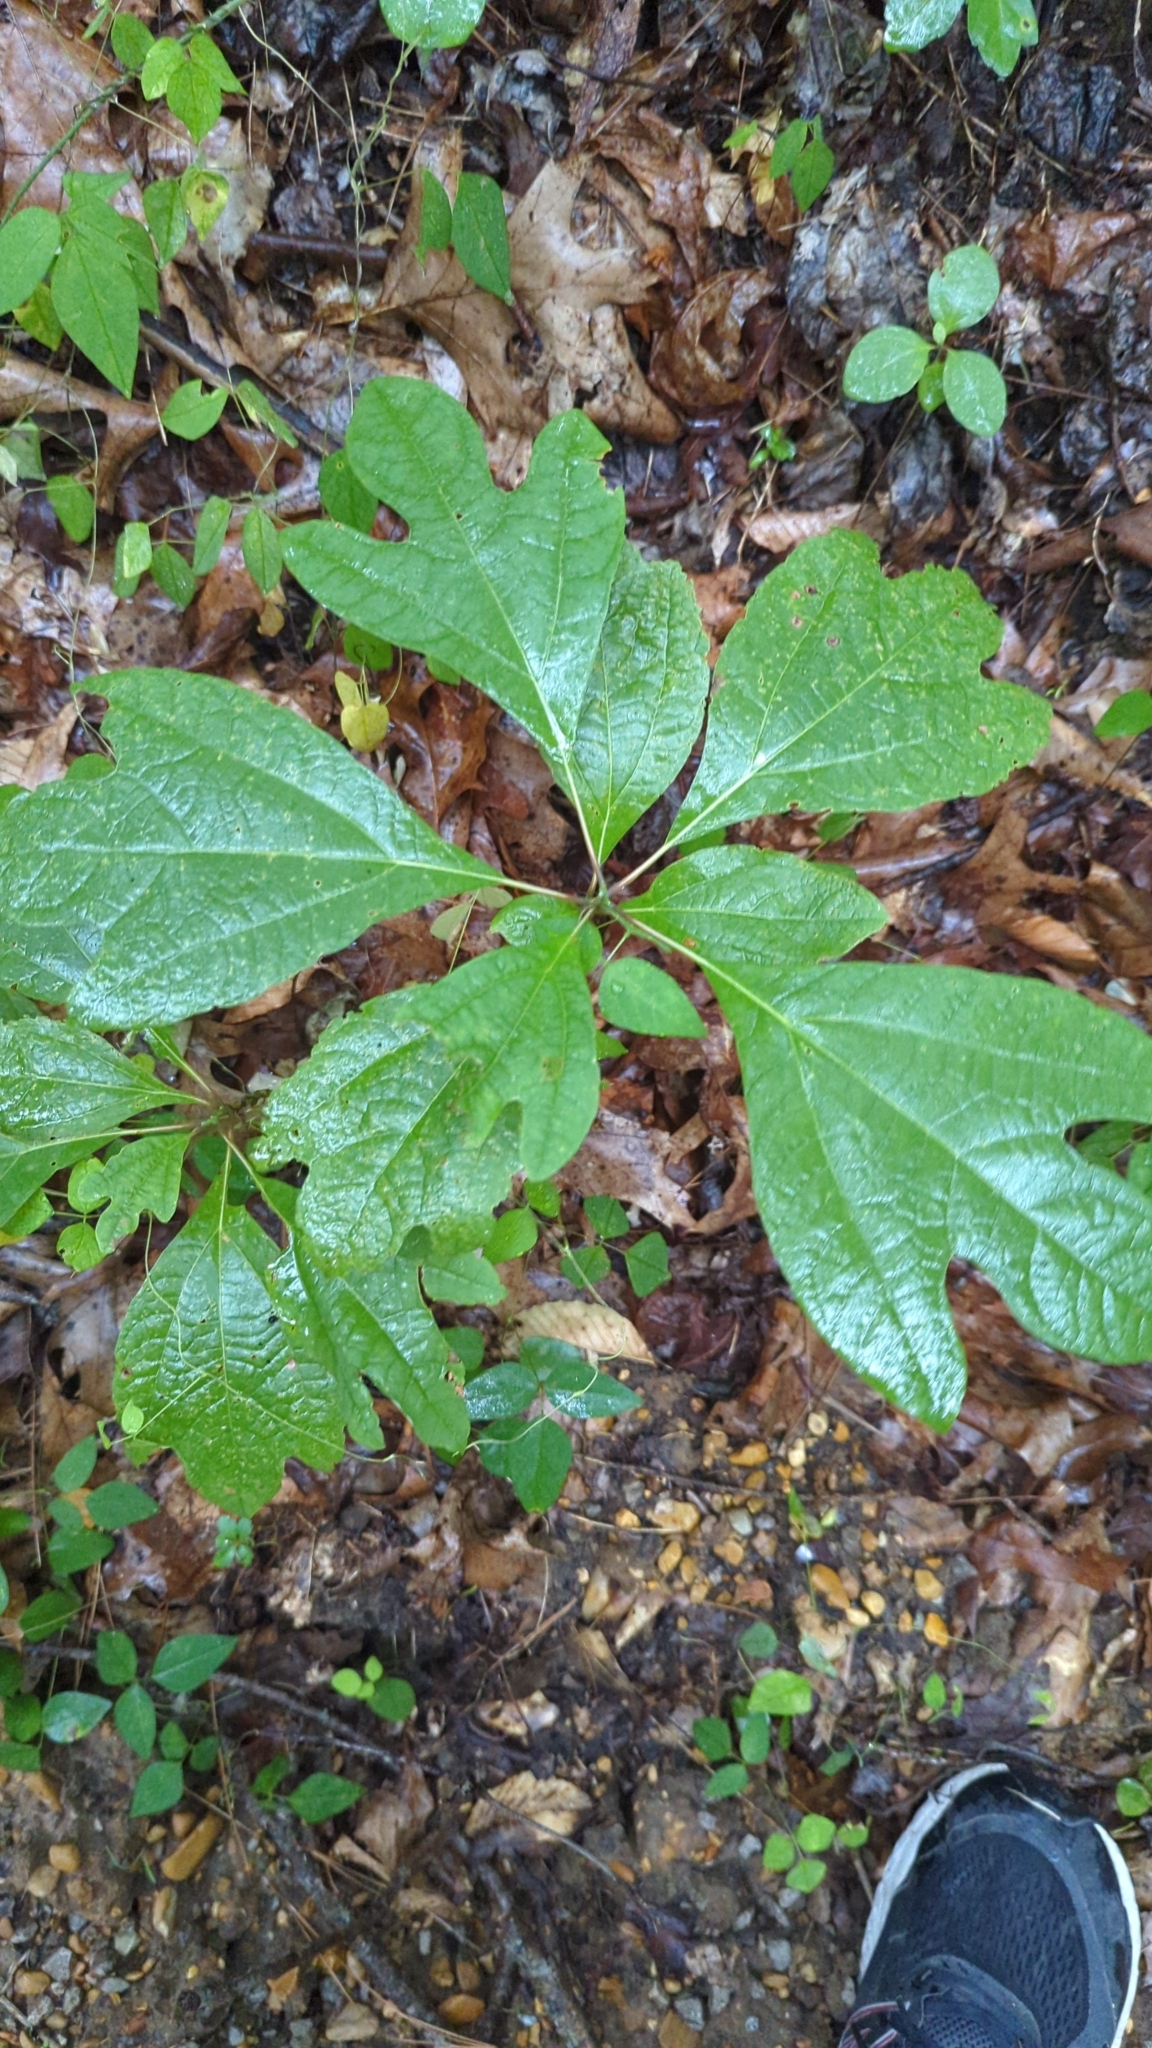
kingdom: Plantae
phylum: Tracheophyta
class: Magnoliopsida
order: Laurales
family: Lauraceae
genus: Sassafras
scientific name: Sassafras albidum
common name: Sassafras
